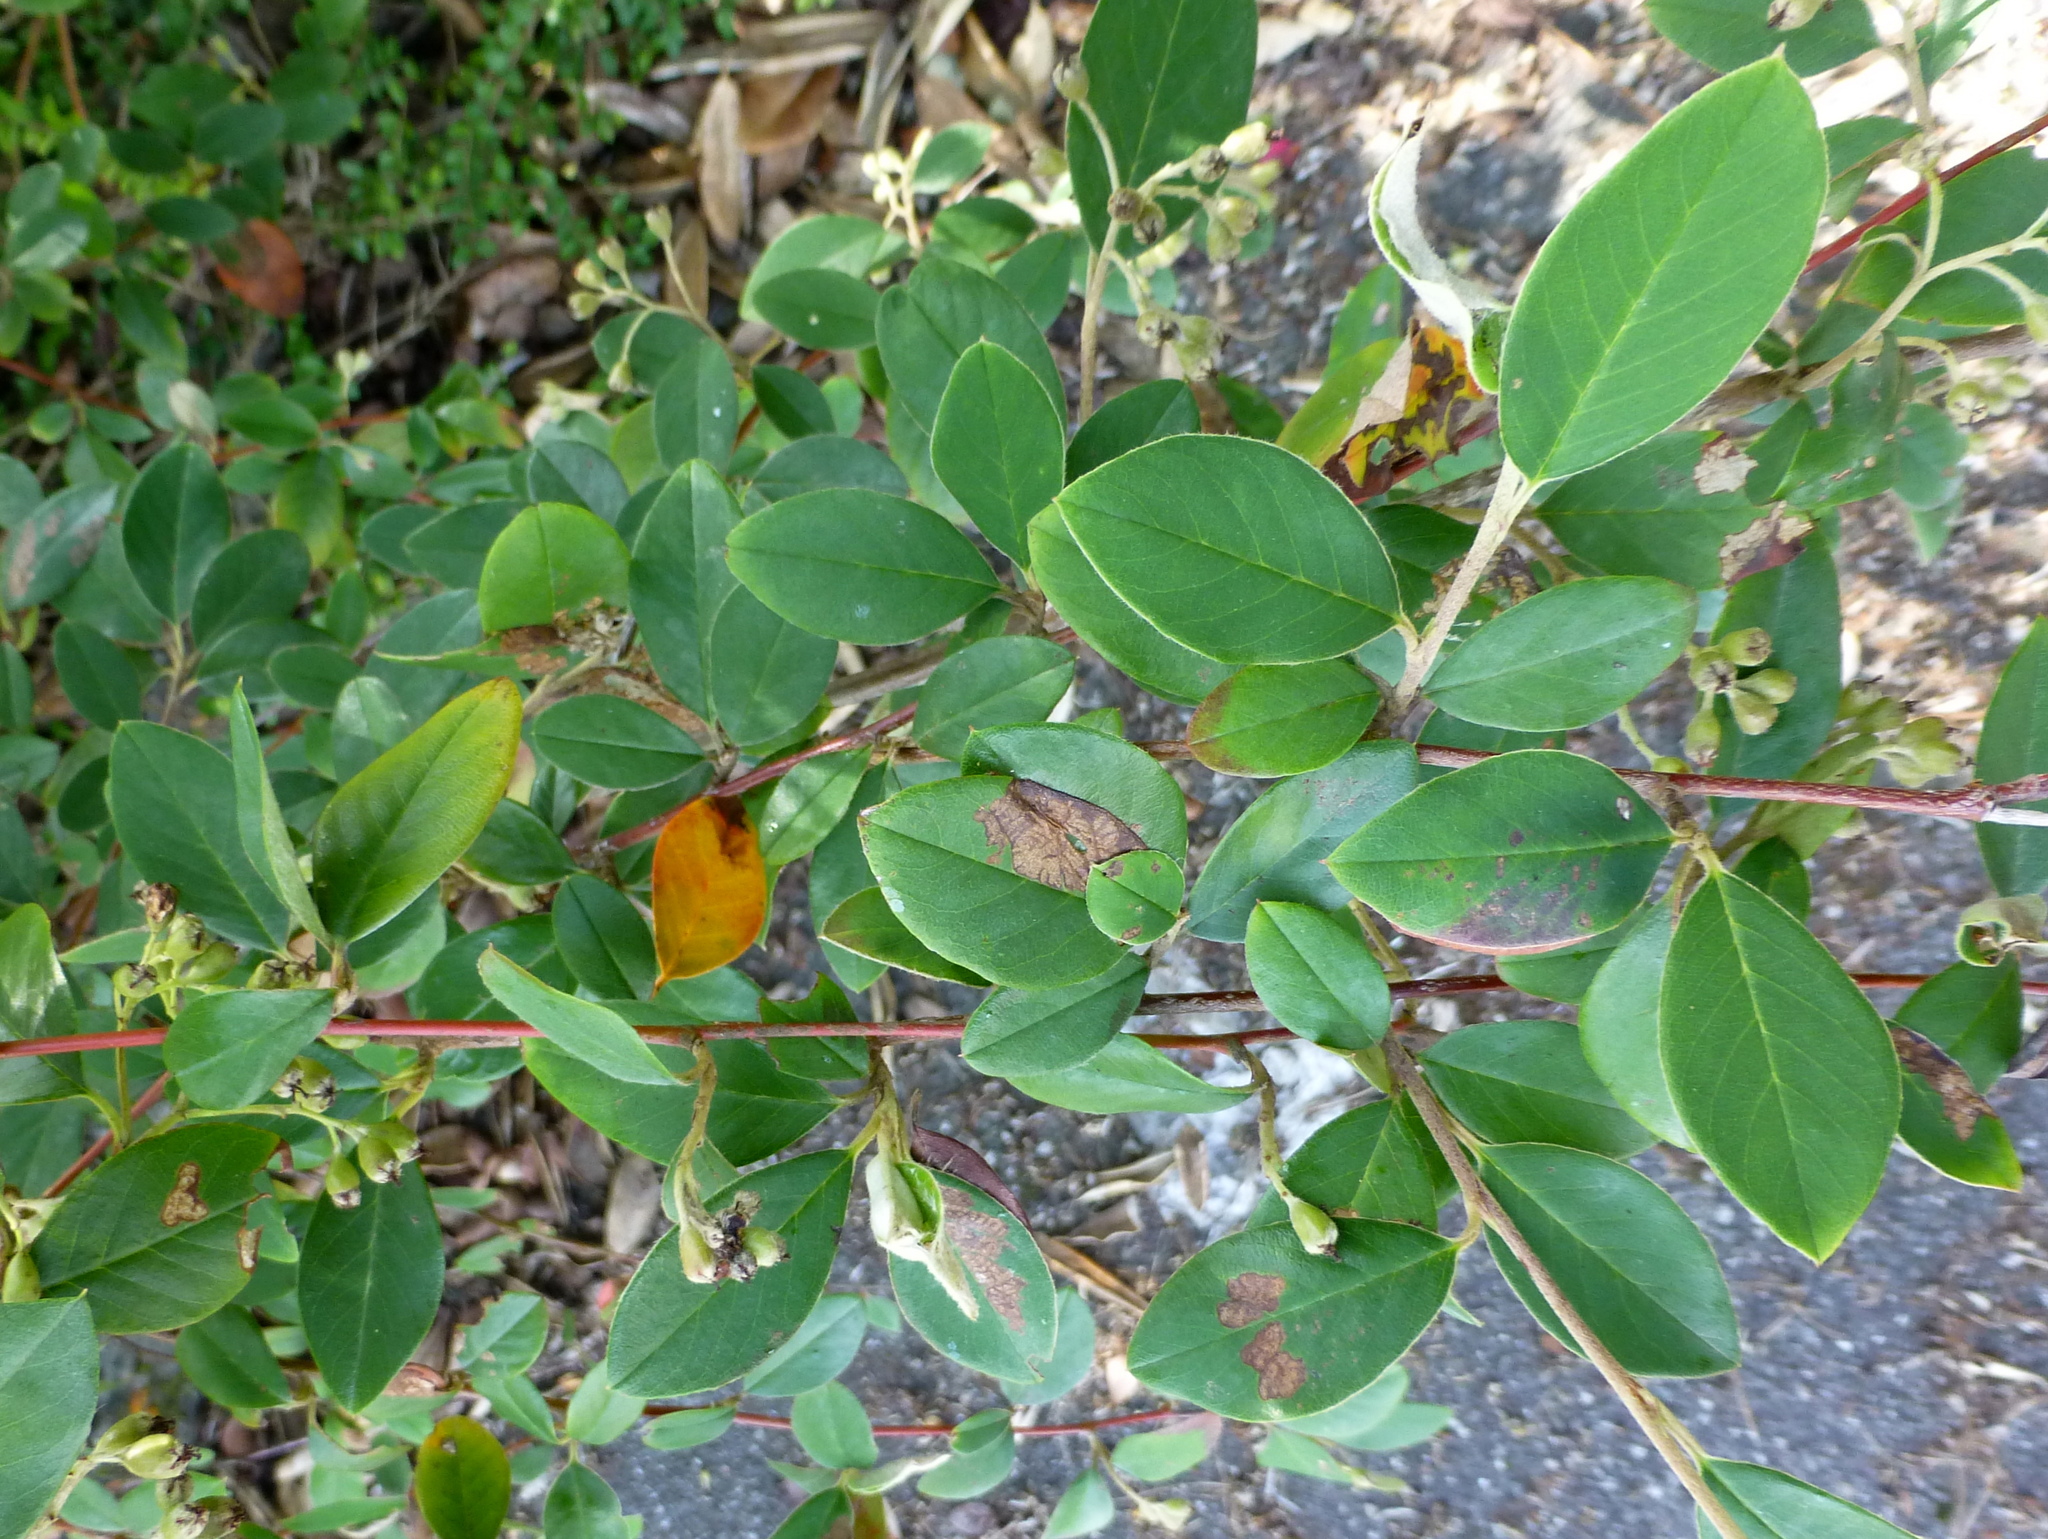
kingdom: Plantae
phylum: Tracheophyta
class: Magnoliopsida
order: Rosales
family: Rosaceae
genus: Cotoneaster
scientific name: Cotoneaster glaucophyllus
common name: Glaucous cotoneaster
